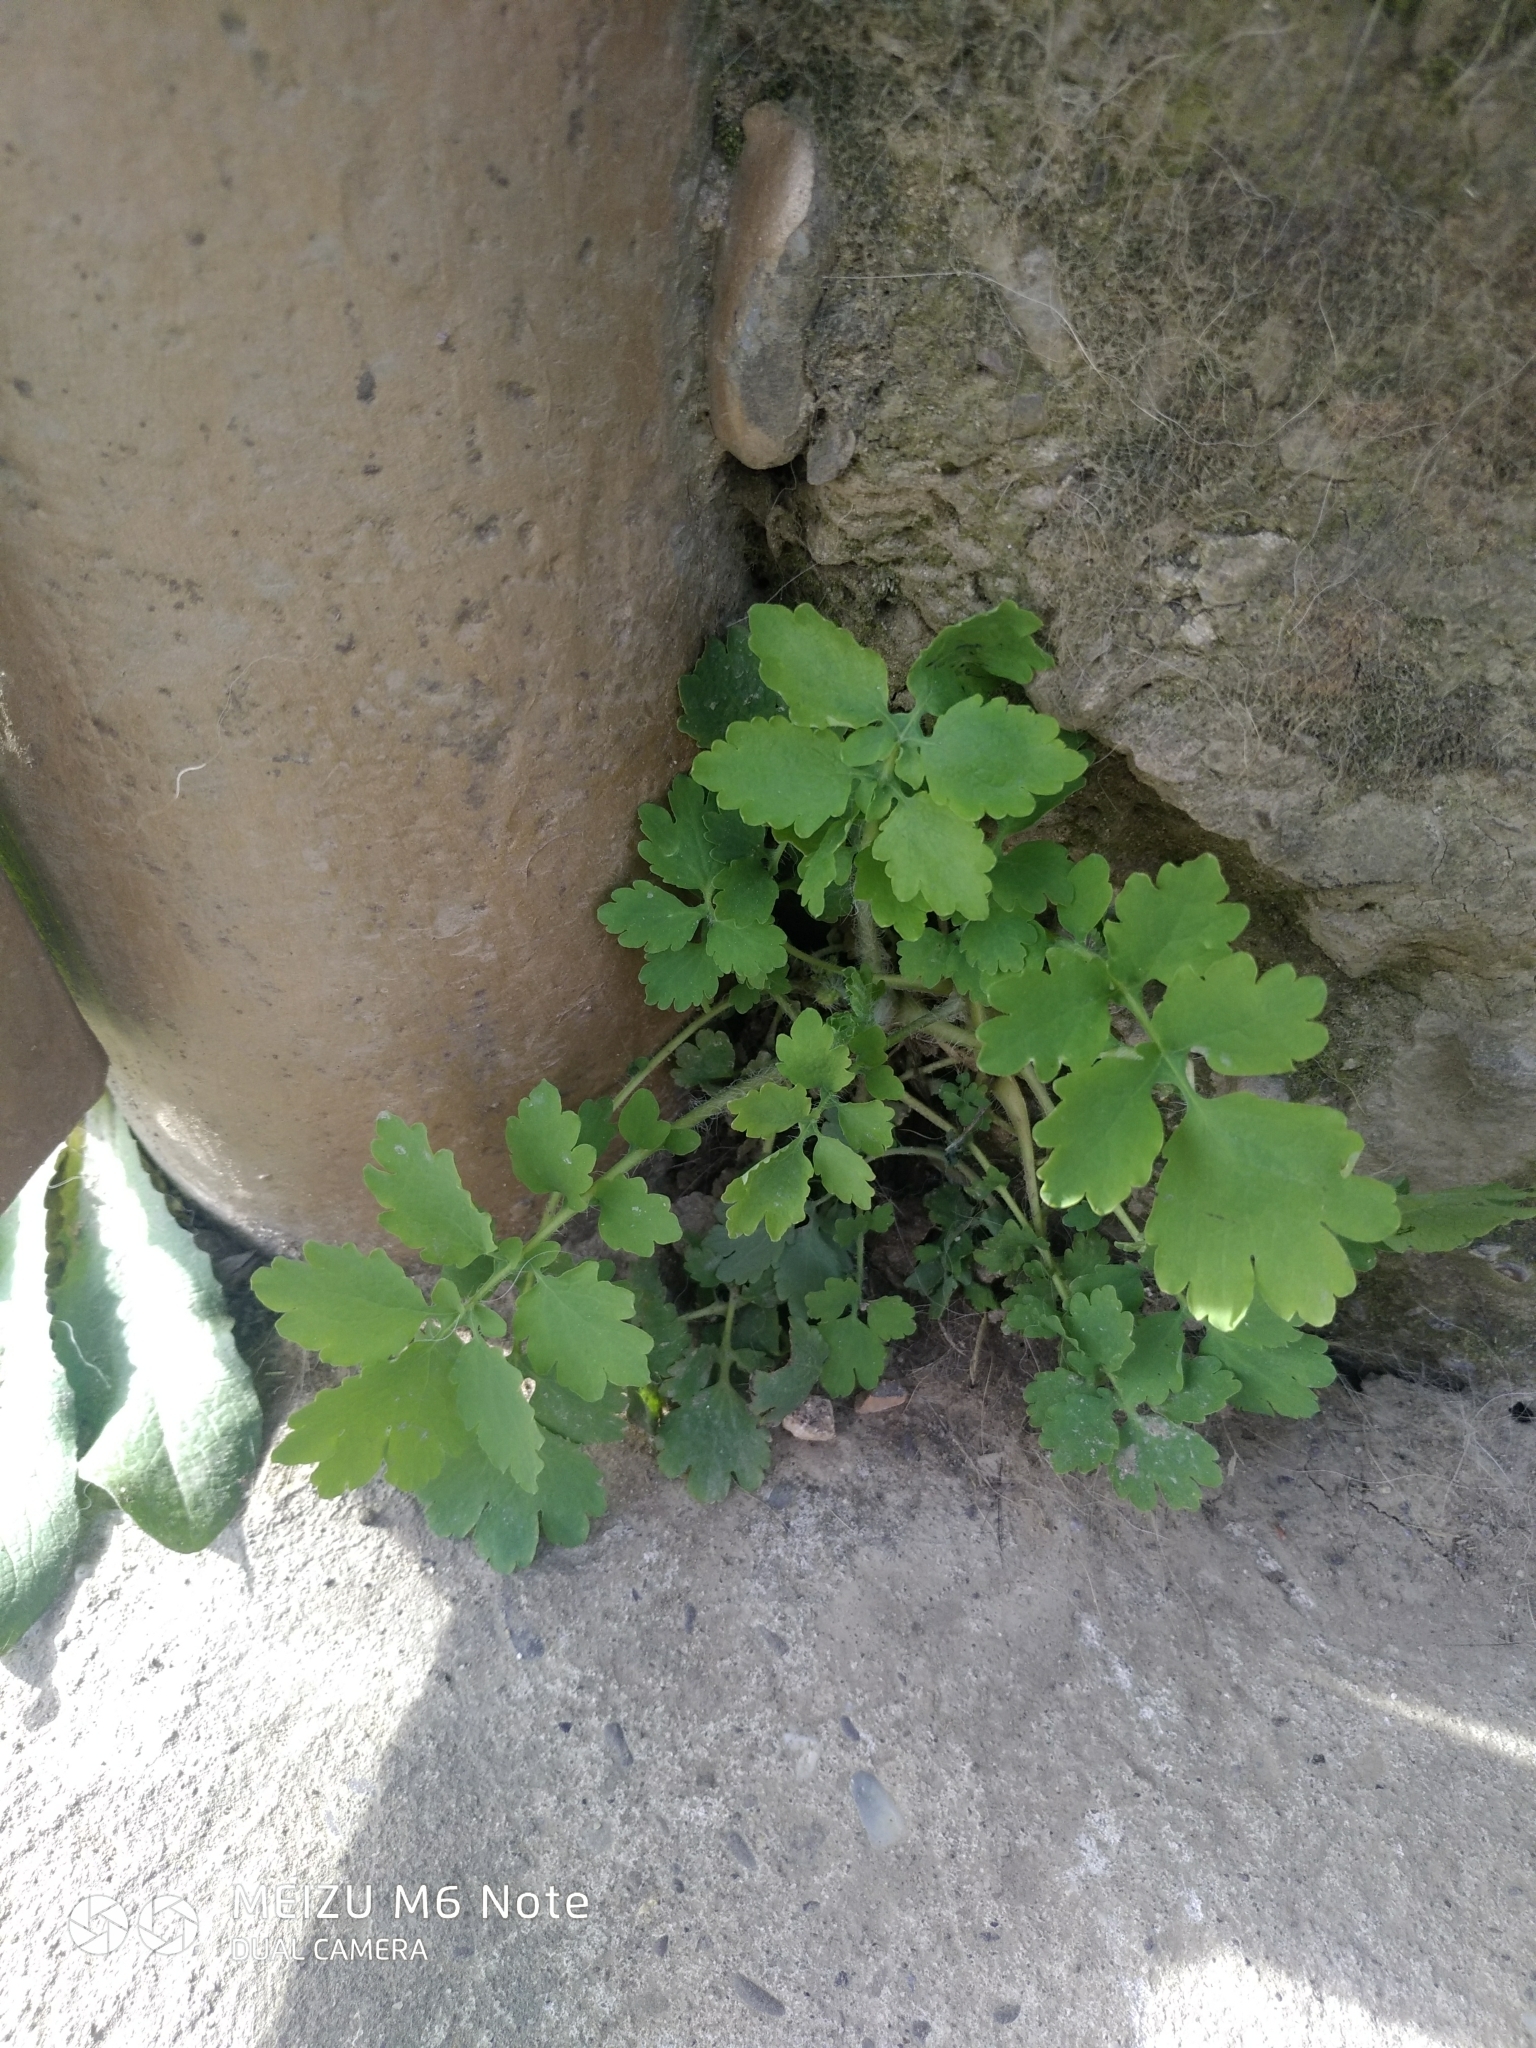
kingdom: Plantae
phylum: Tracheophyta
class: Magnoliopsida
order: Ranunculales
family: Papaveraceae
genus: Chelidonium
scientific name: Chelidonium majus
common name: Greater celandine
